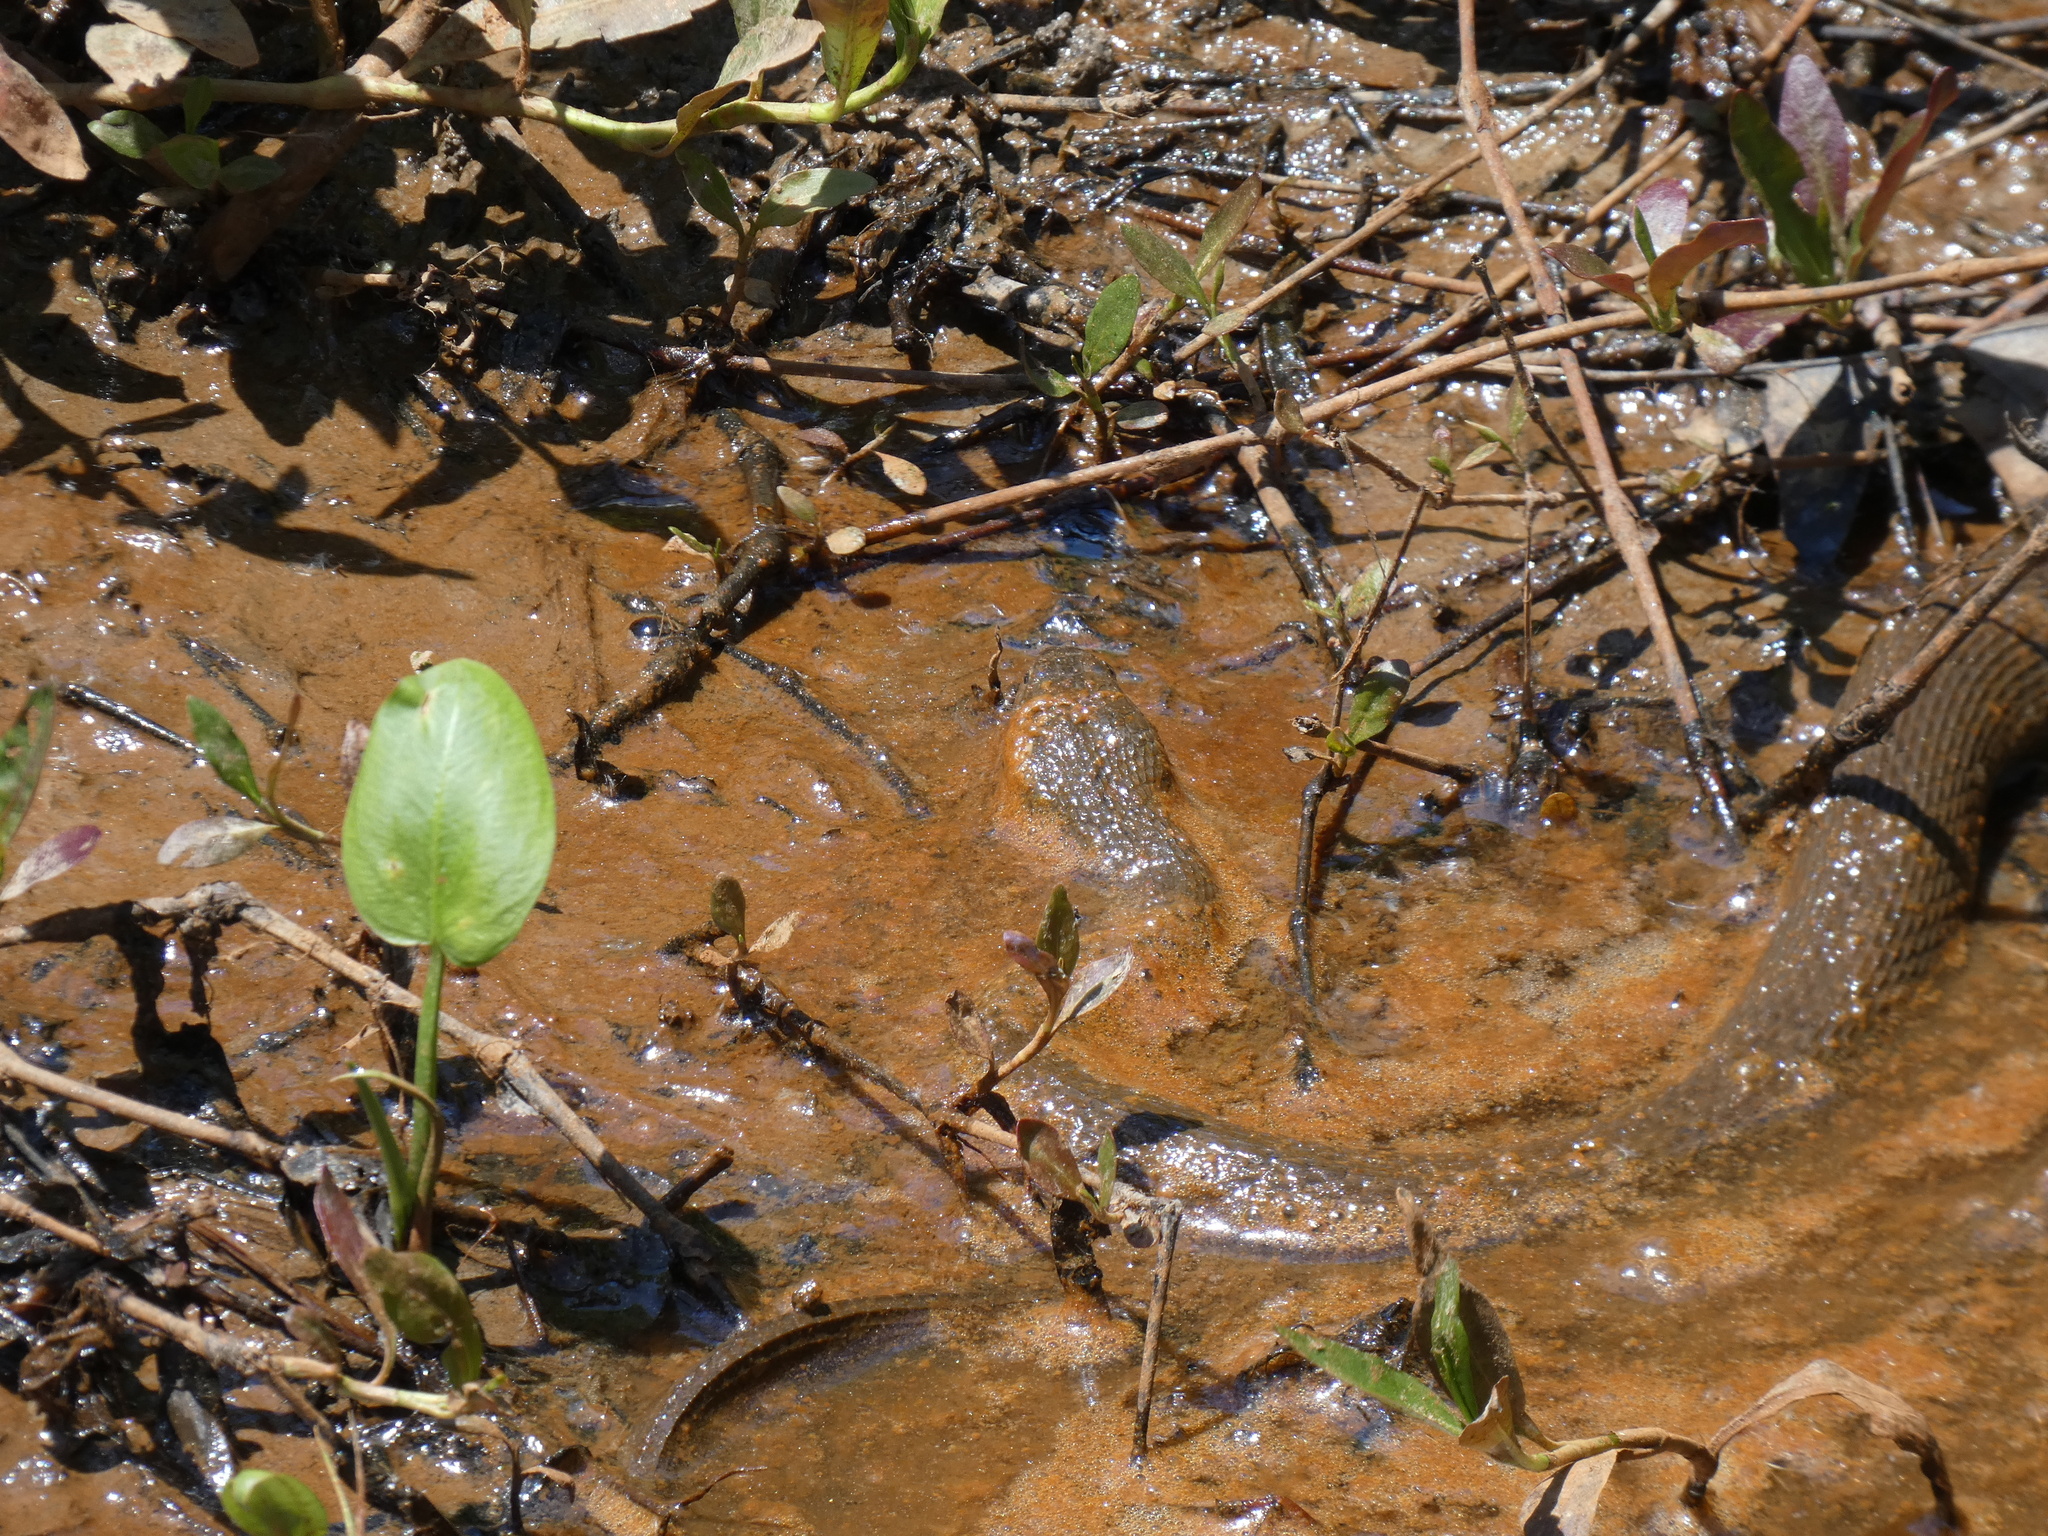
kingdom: Animalia
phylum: Chordata
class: Squamata
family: Colubridae
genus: Nerodia
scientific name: Nerodia sipedon
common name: Northern water snake
